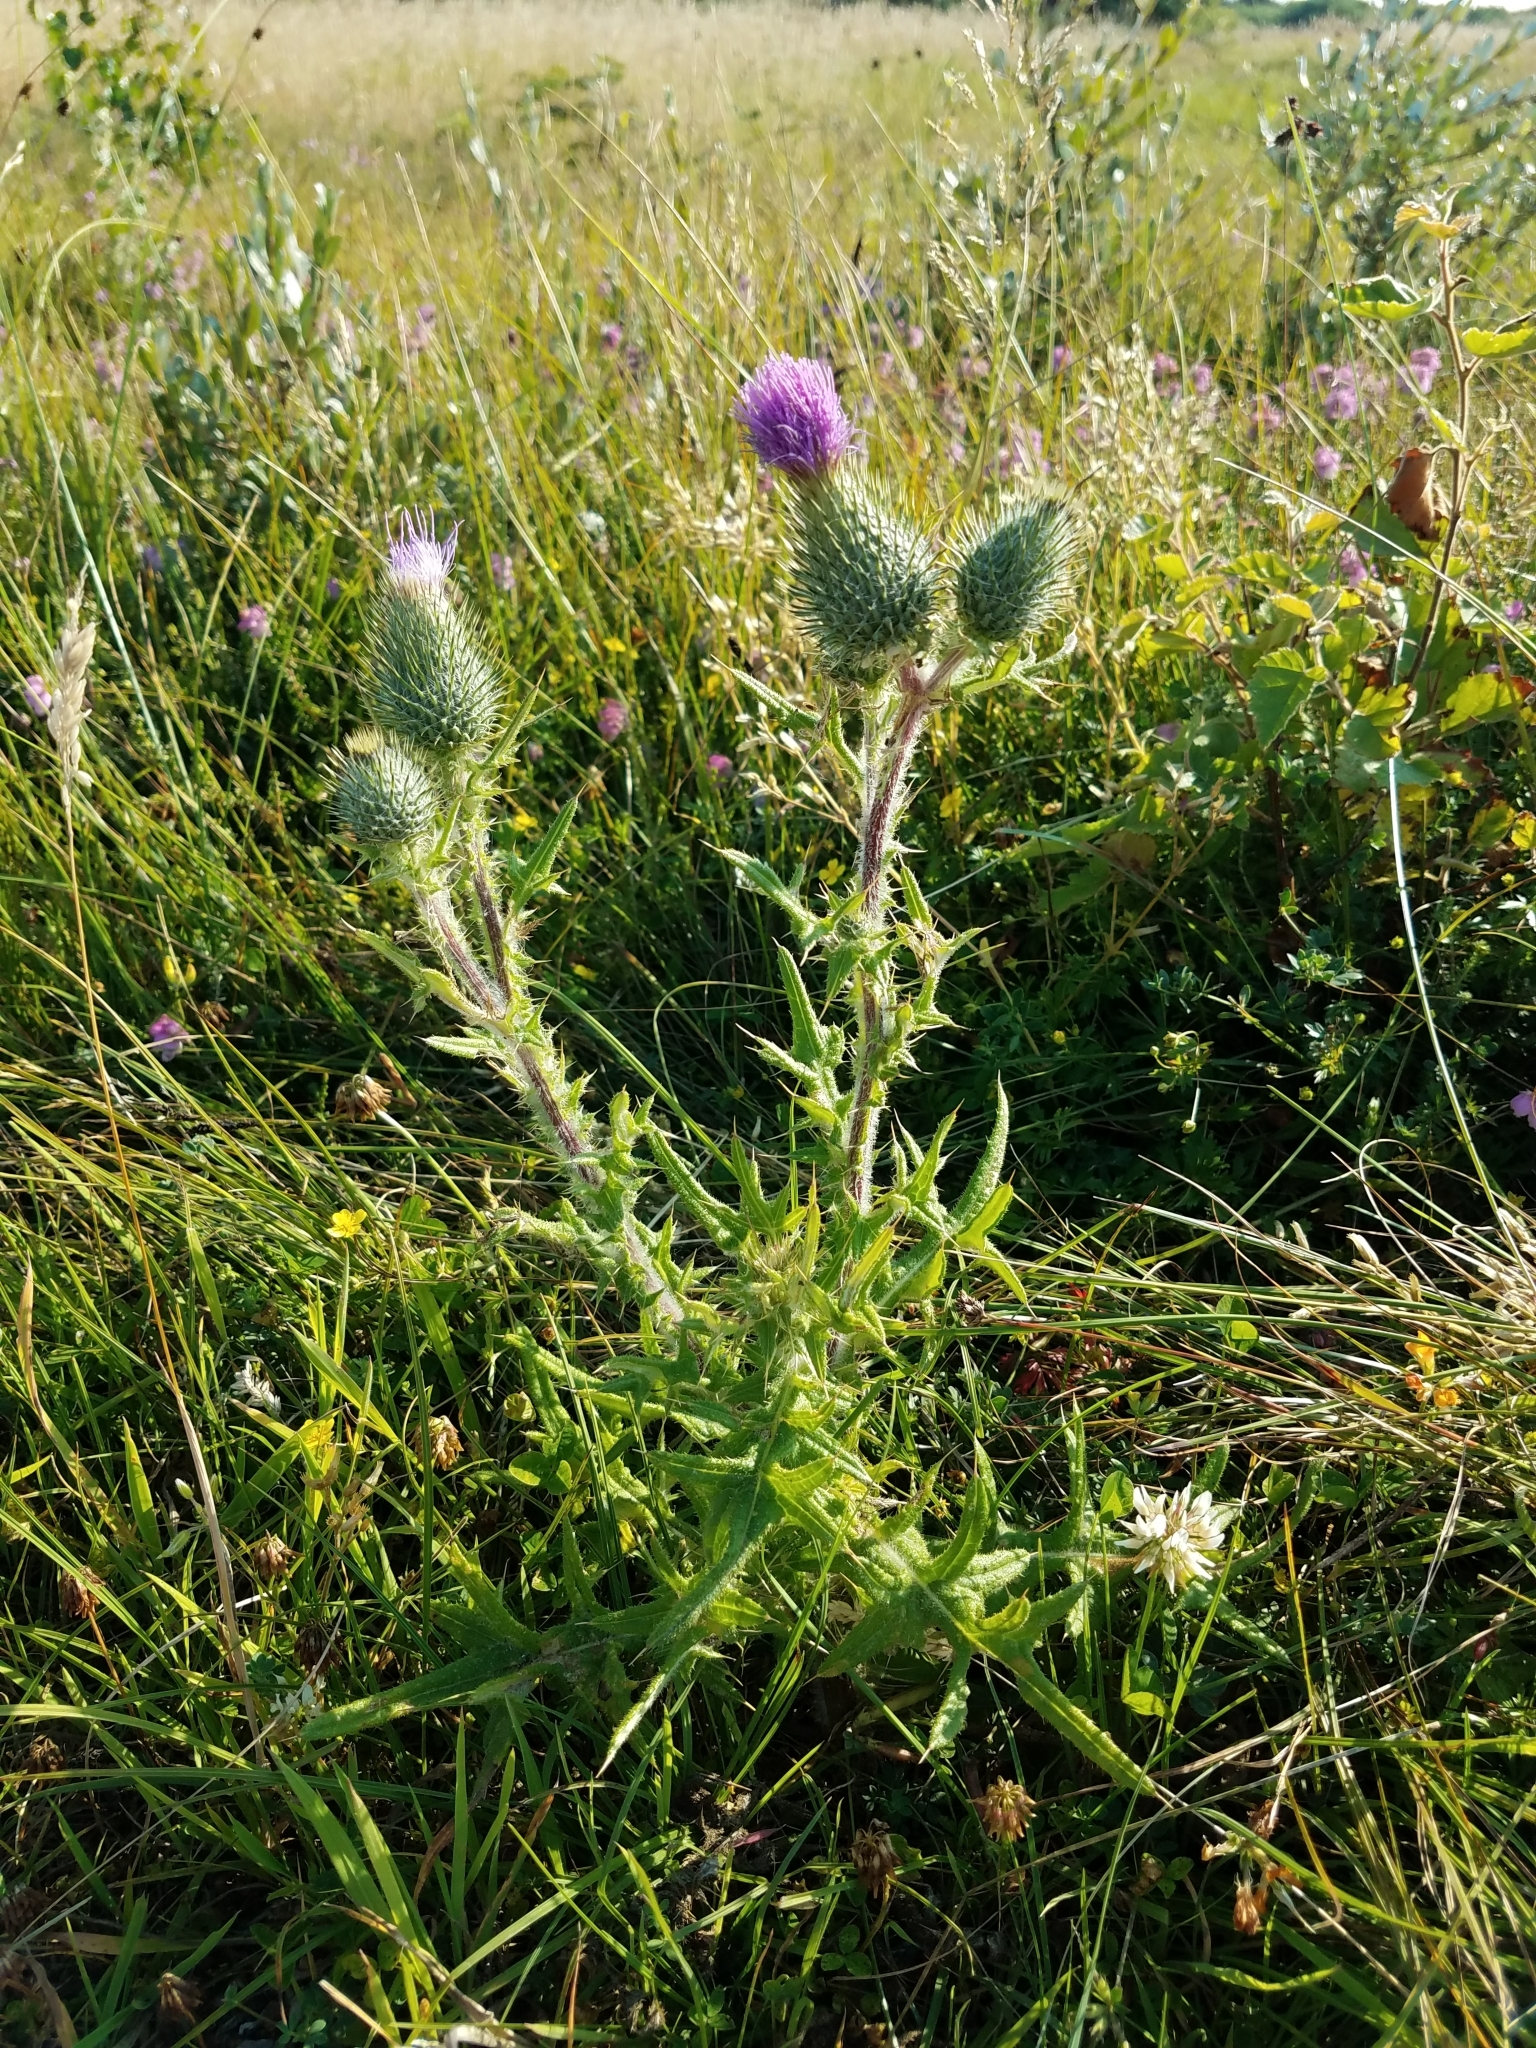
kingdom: Plantae
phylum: Tracheophyta
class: Magnoliopsida
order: Asterales
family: Asteraceae
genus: Cirsium
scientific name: Cirsium vulgare
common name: Bull thistle
